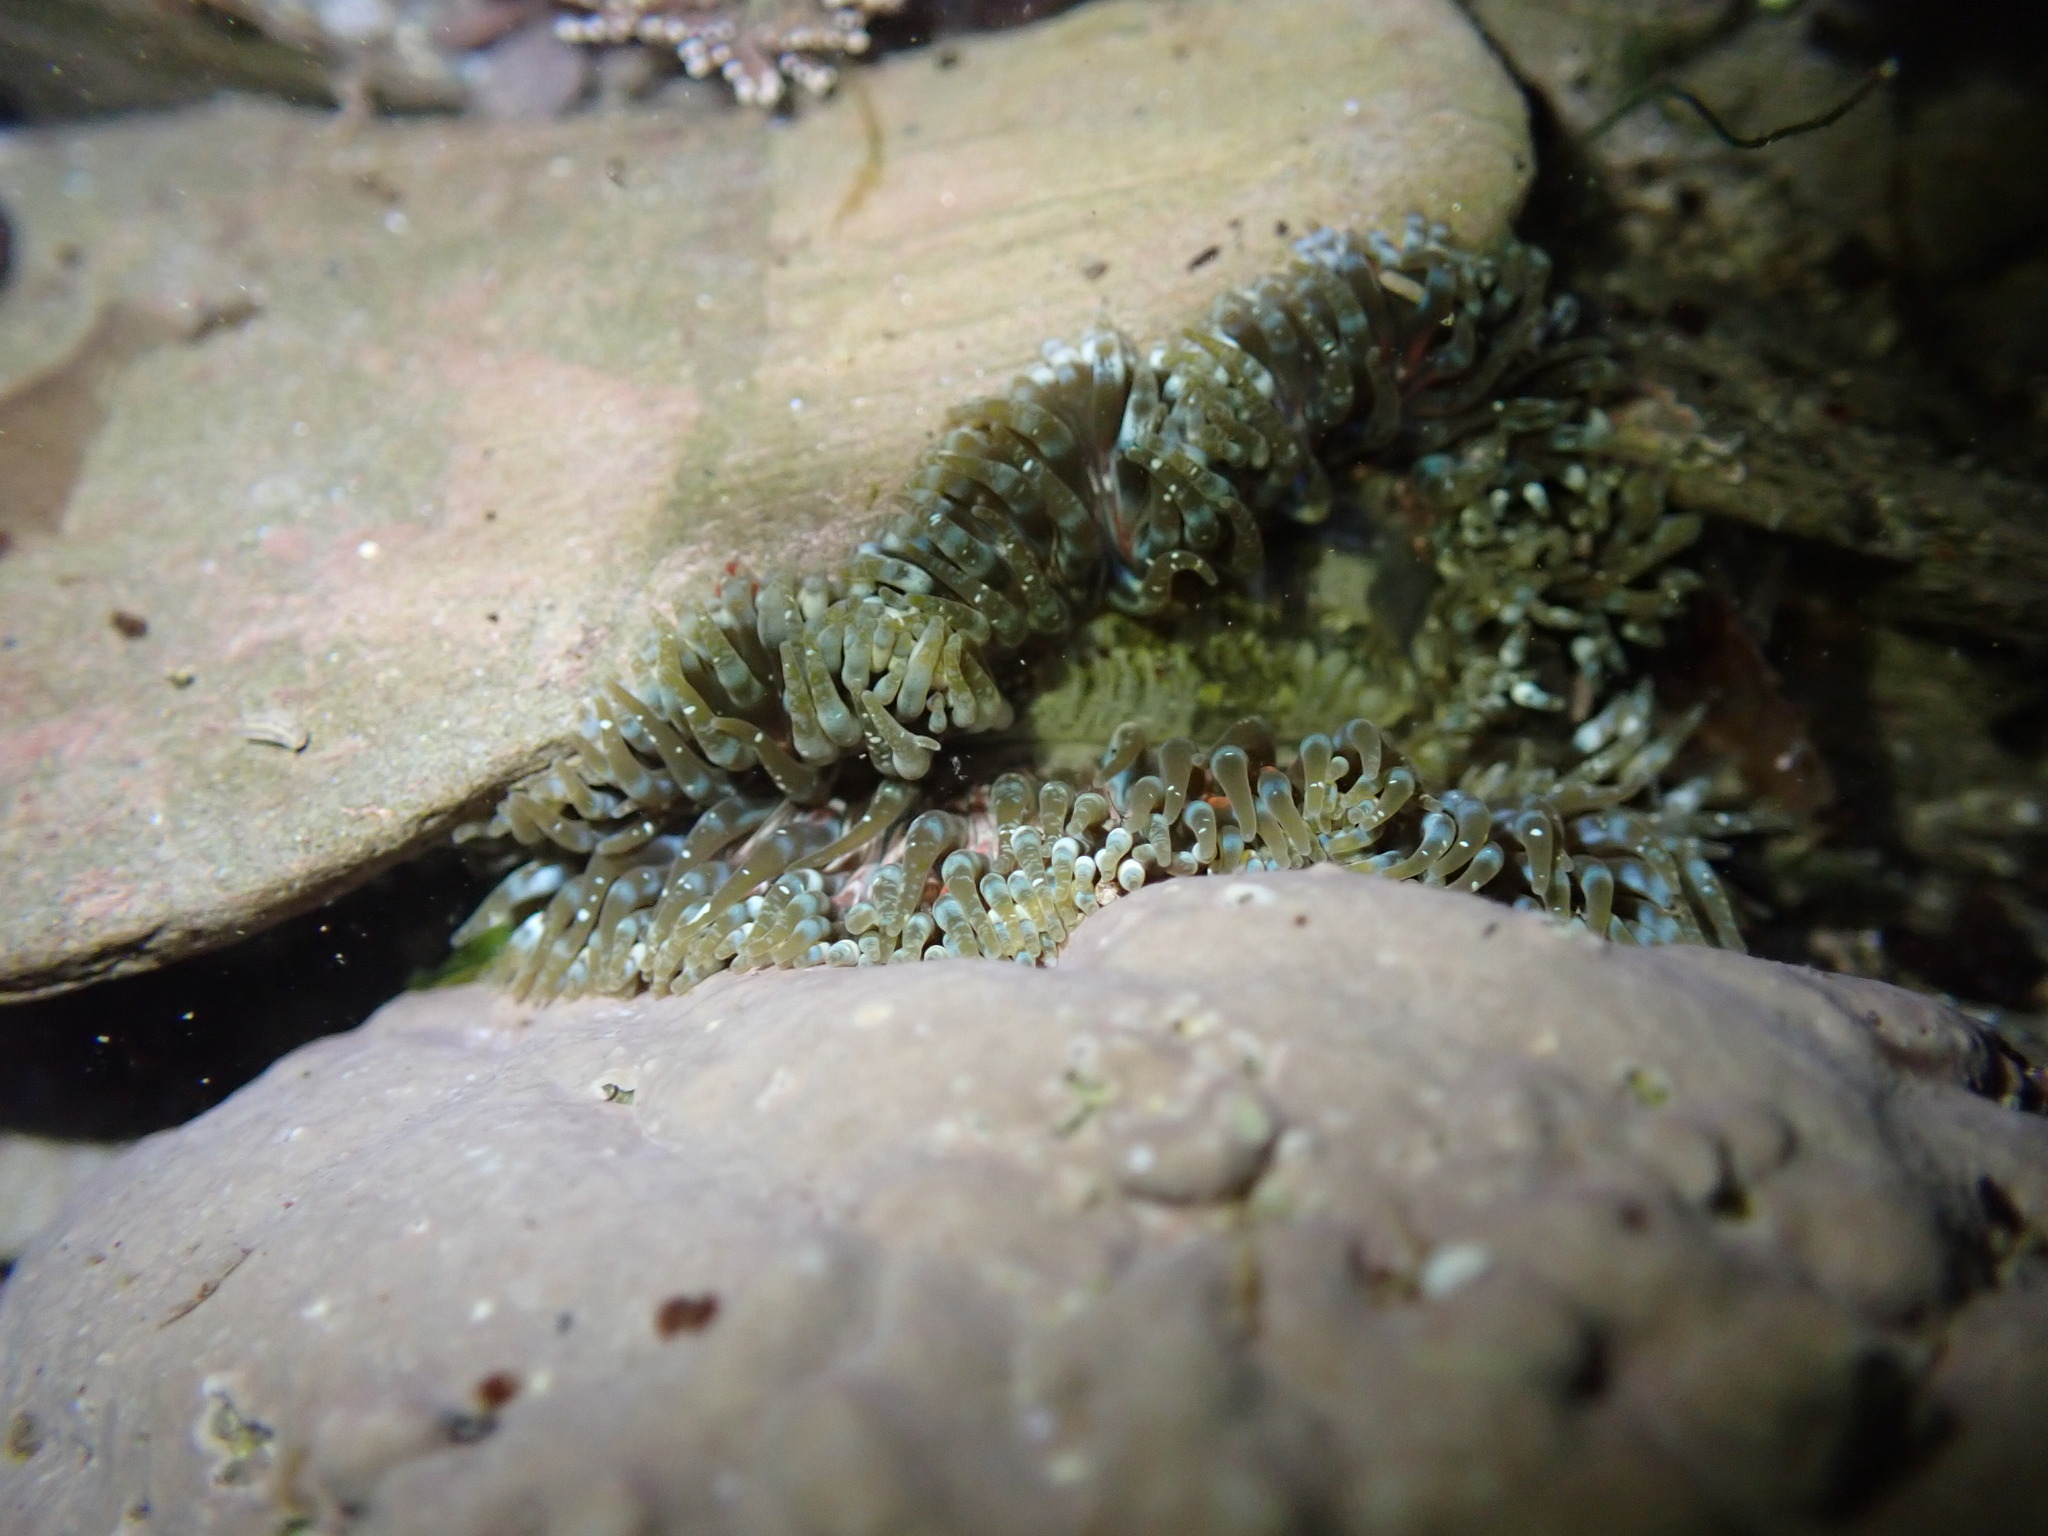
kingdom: Animalia
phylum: Cnidaria
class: Anthozoa
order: Actiniaria
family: Sagartiidae
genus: Cereus
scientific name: Cereus pedunculatus
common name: Daisy anemone
